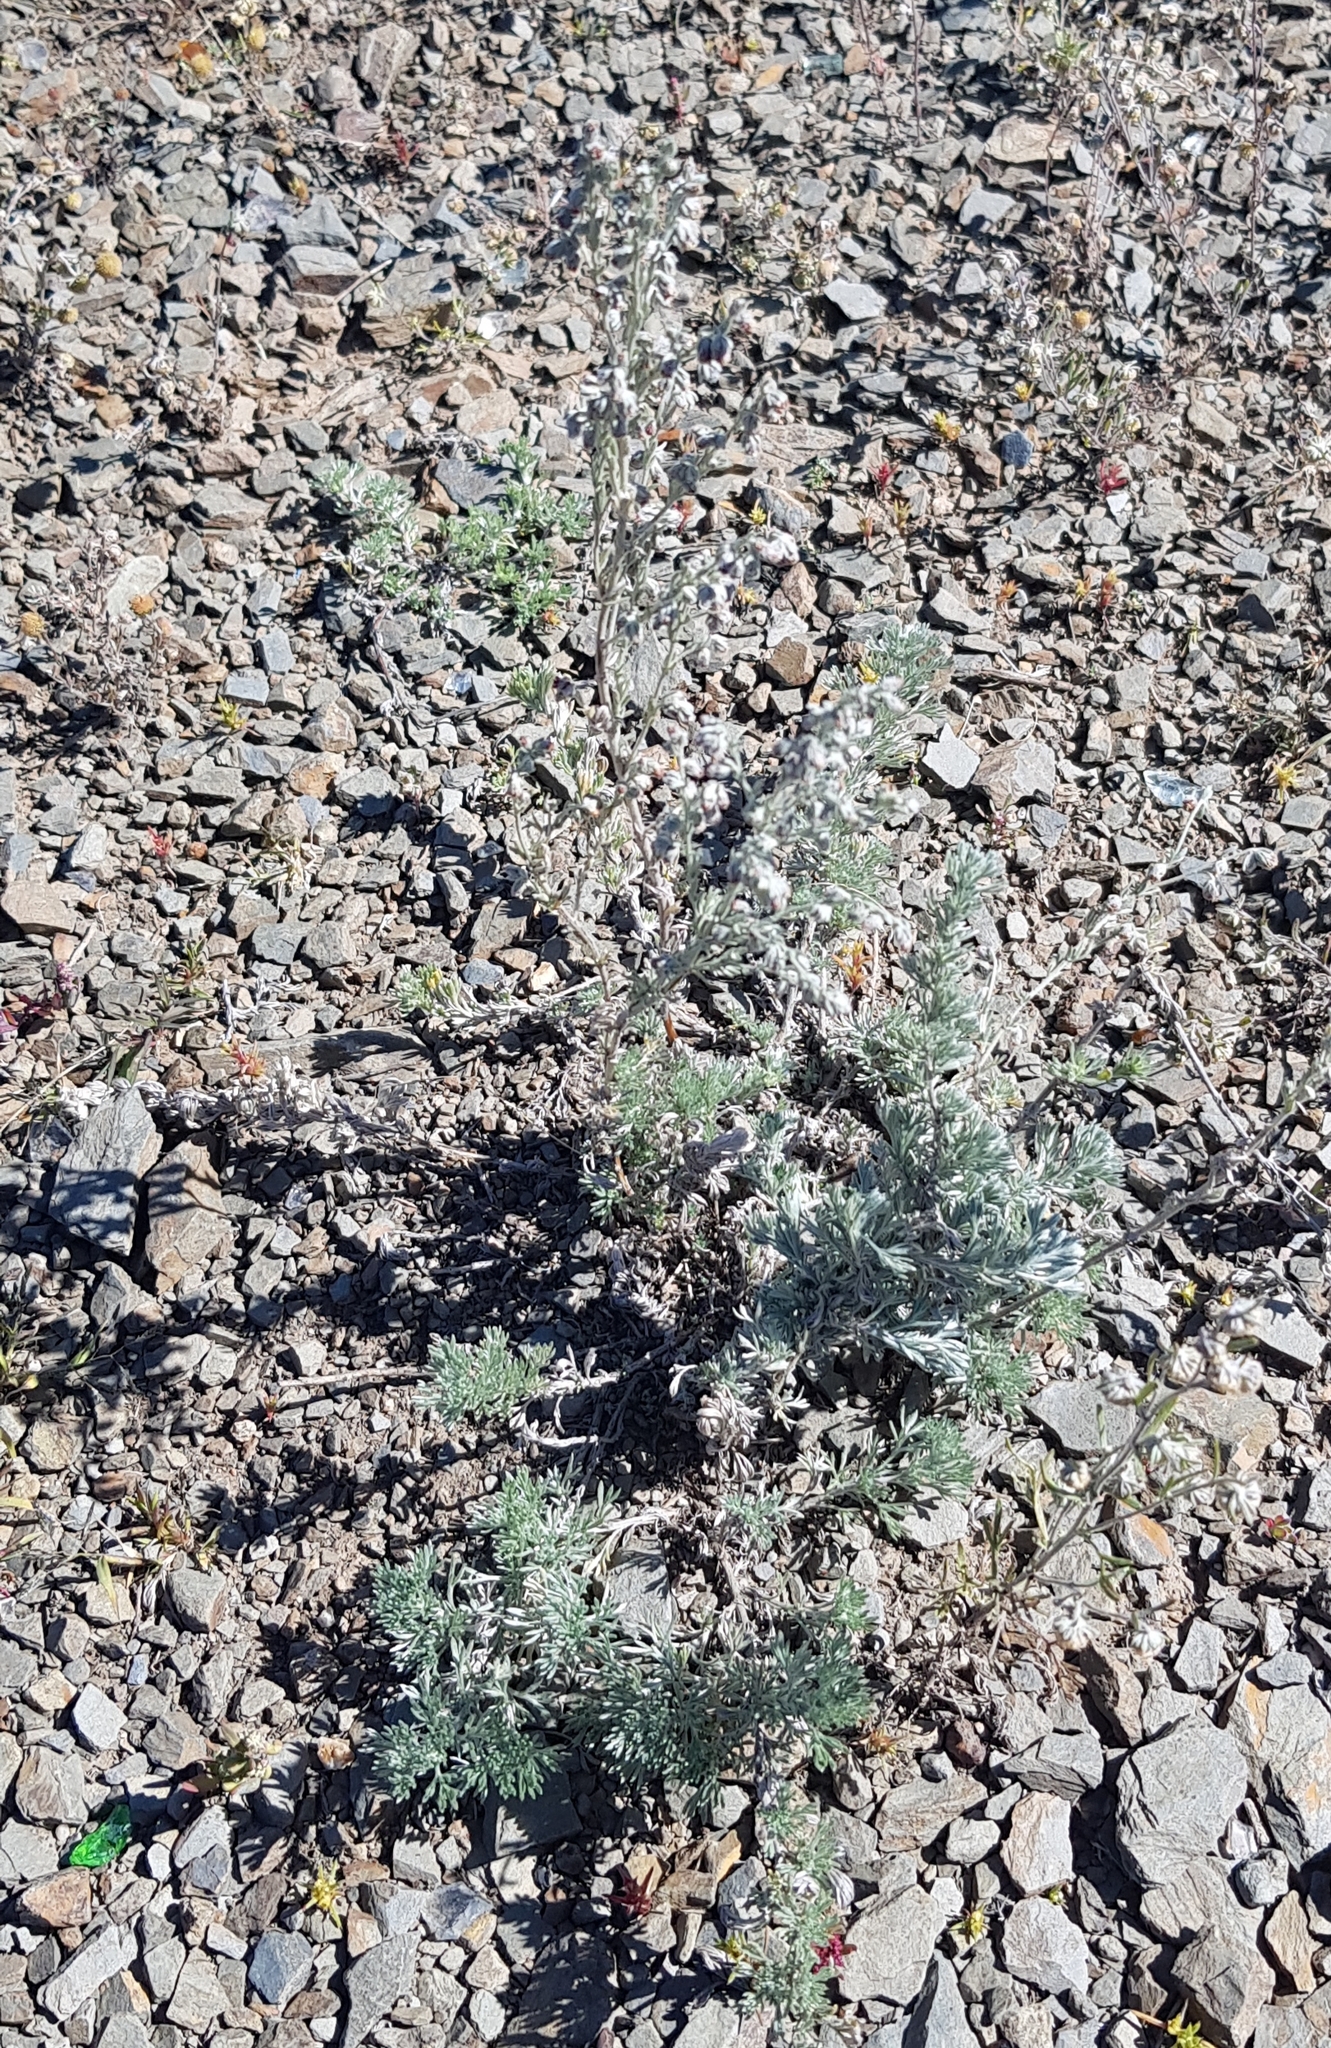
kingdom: Plantae
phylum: Tracheophyta
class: Magnoliopsida
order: Asterales
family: Asteraceae
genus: Artemisia
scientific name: Artemisia frigida
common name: Prairie sagewort
